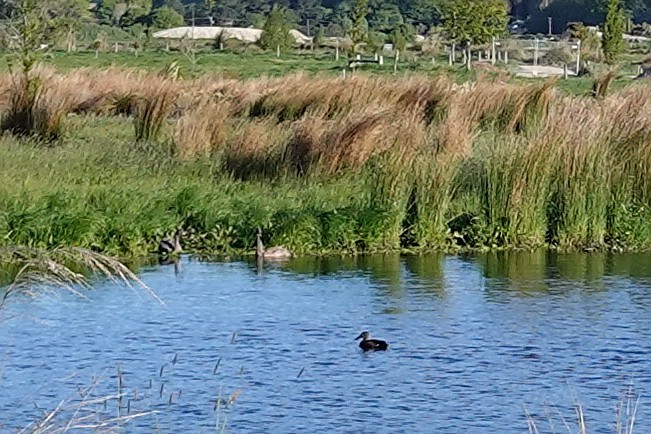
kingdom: Animalia
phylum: Chordata
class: Aves
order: Anseriformes
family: Anatidae
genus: Cygnus
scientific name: Cygnus atratus
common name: Black swan
